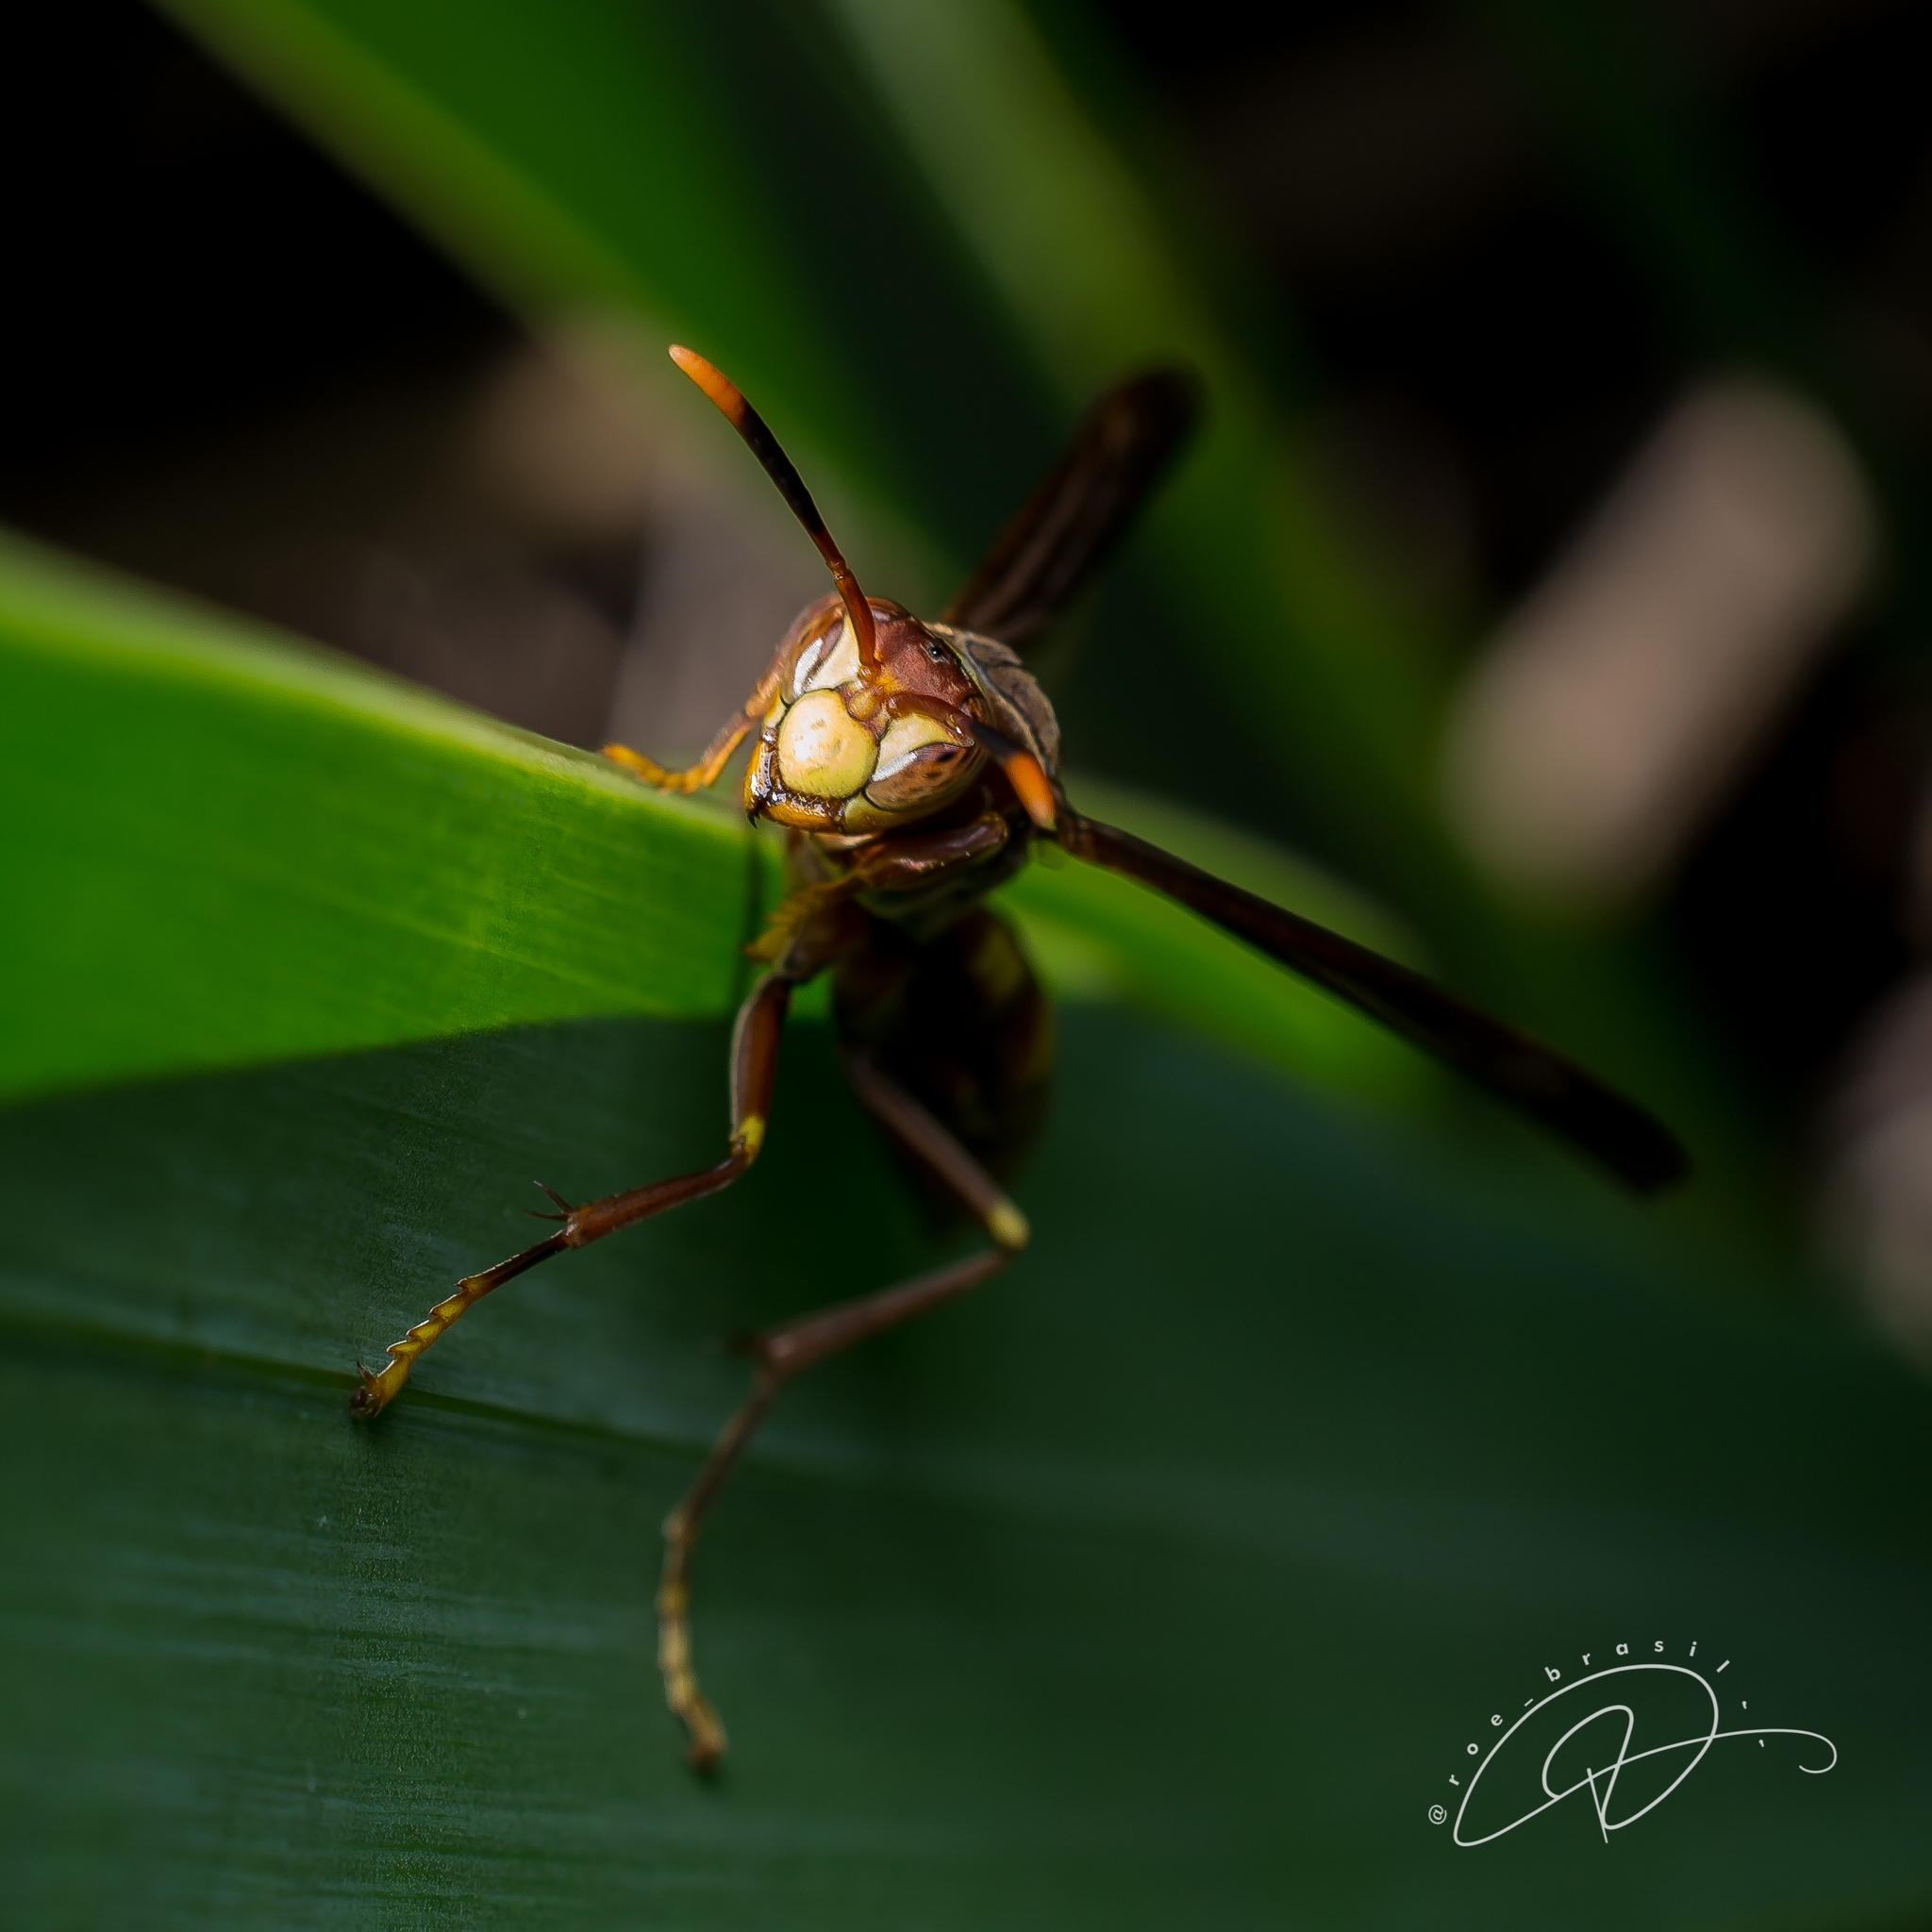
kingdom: Animalia
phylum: Arthropoda
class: Insecta
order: Hymenoptera
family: Eumenidae
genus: Polistes
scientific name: Polistes simillimus
